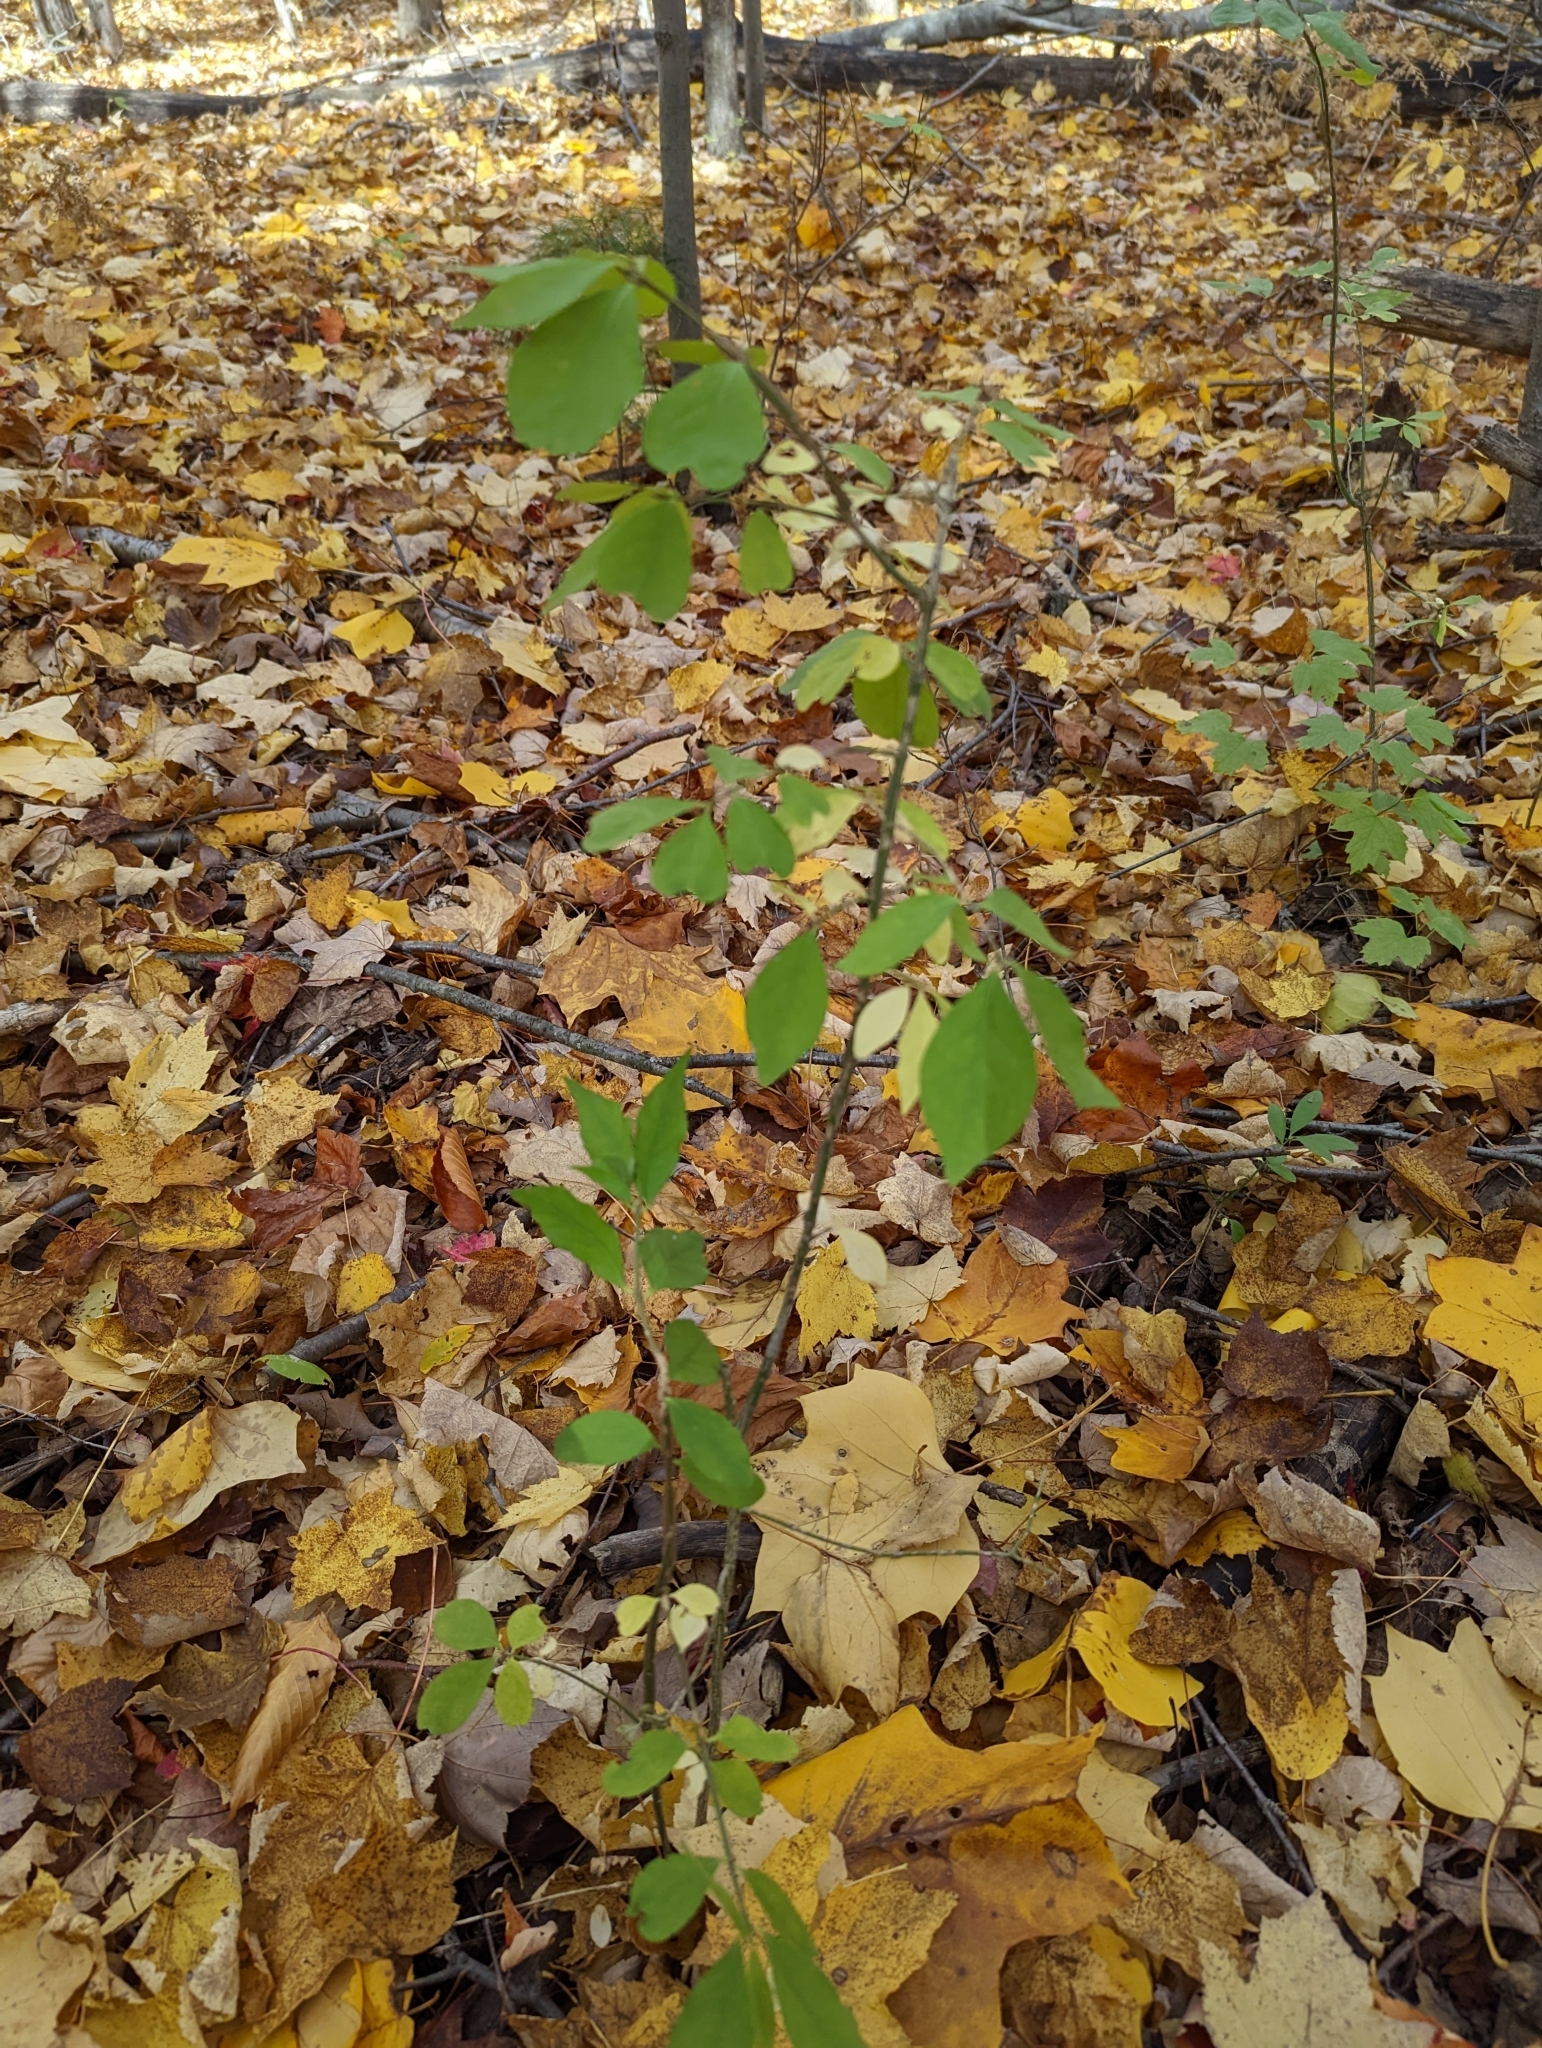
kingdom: Plantae
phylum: Tracheophyta
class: Magnoliopsida
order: Celastrales
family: Celastraceae
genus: Euonymus
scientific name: Euonymus alatus
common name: Winged euonymus
